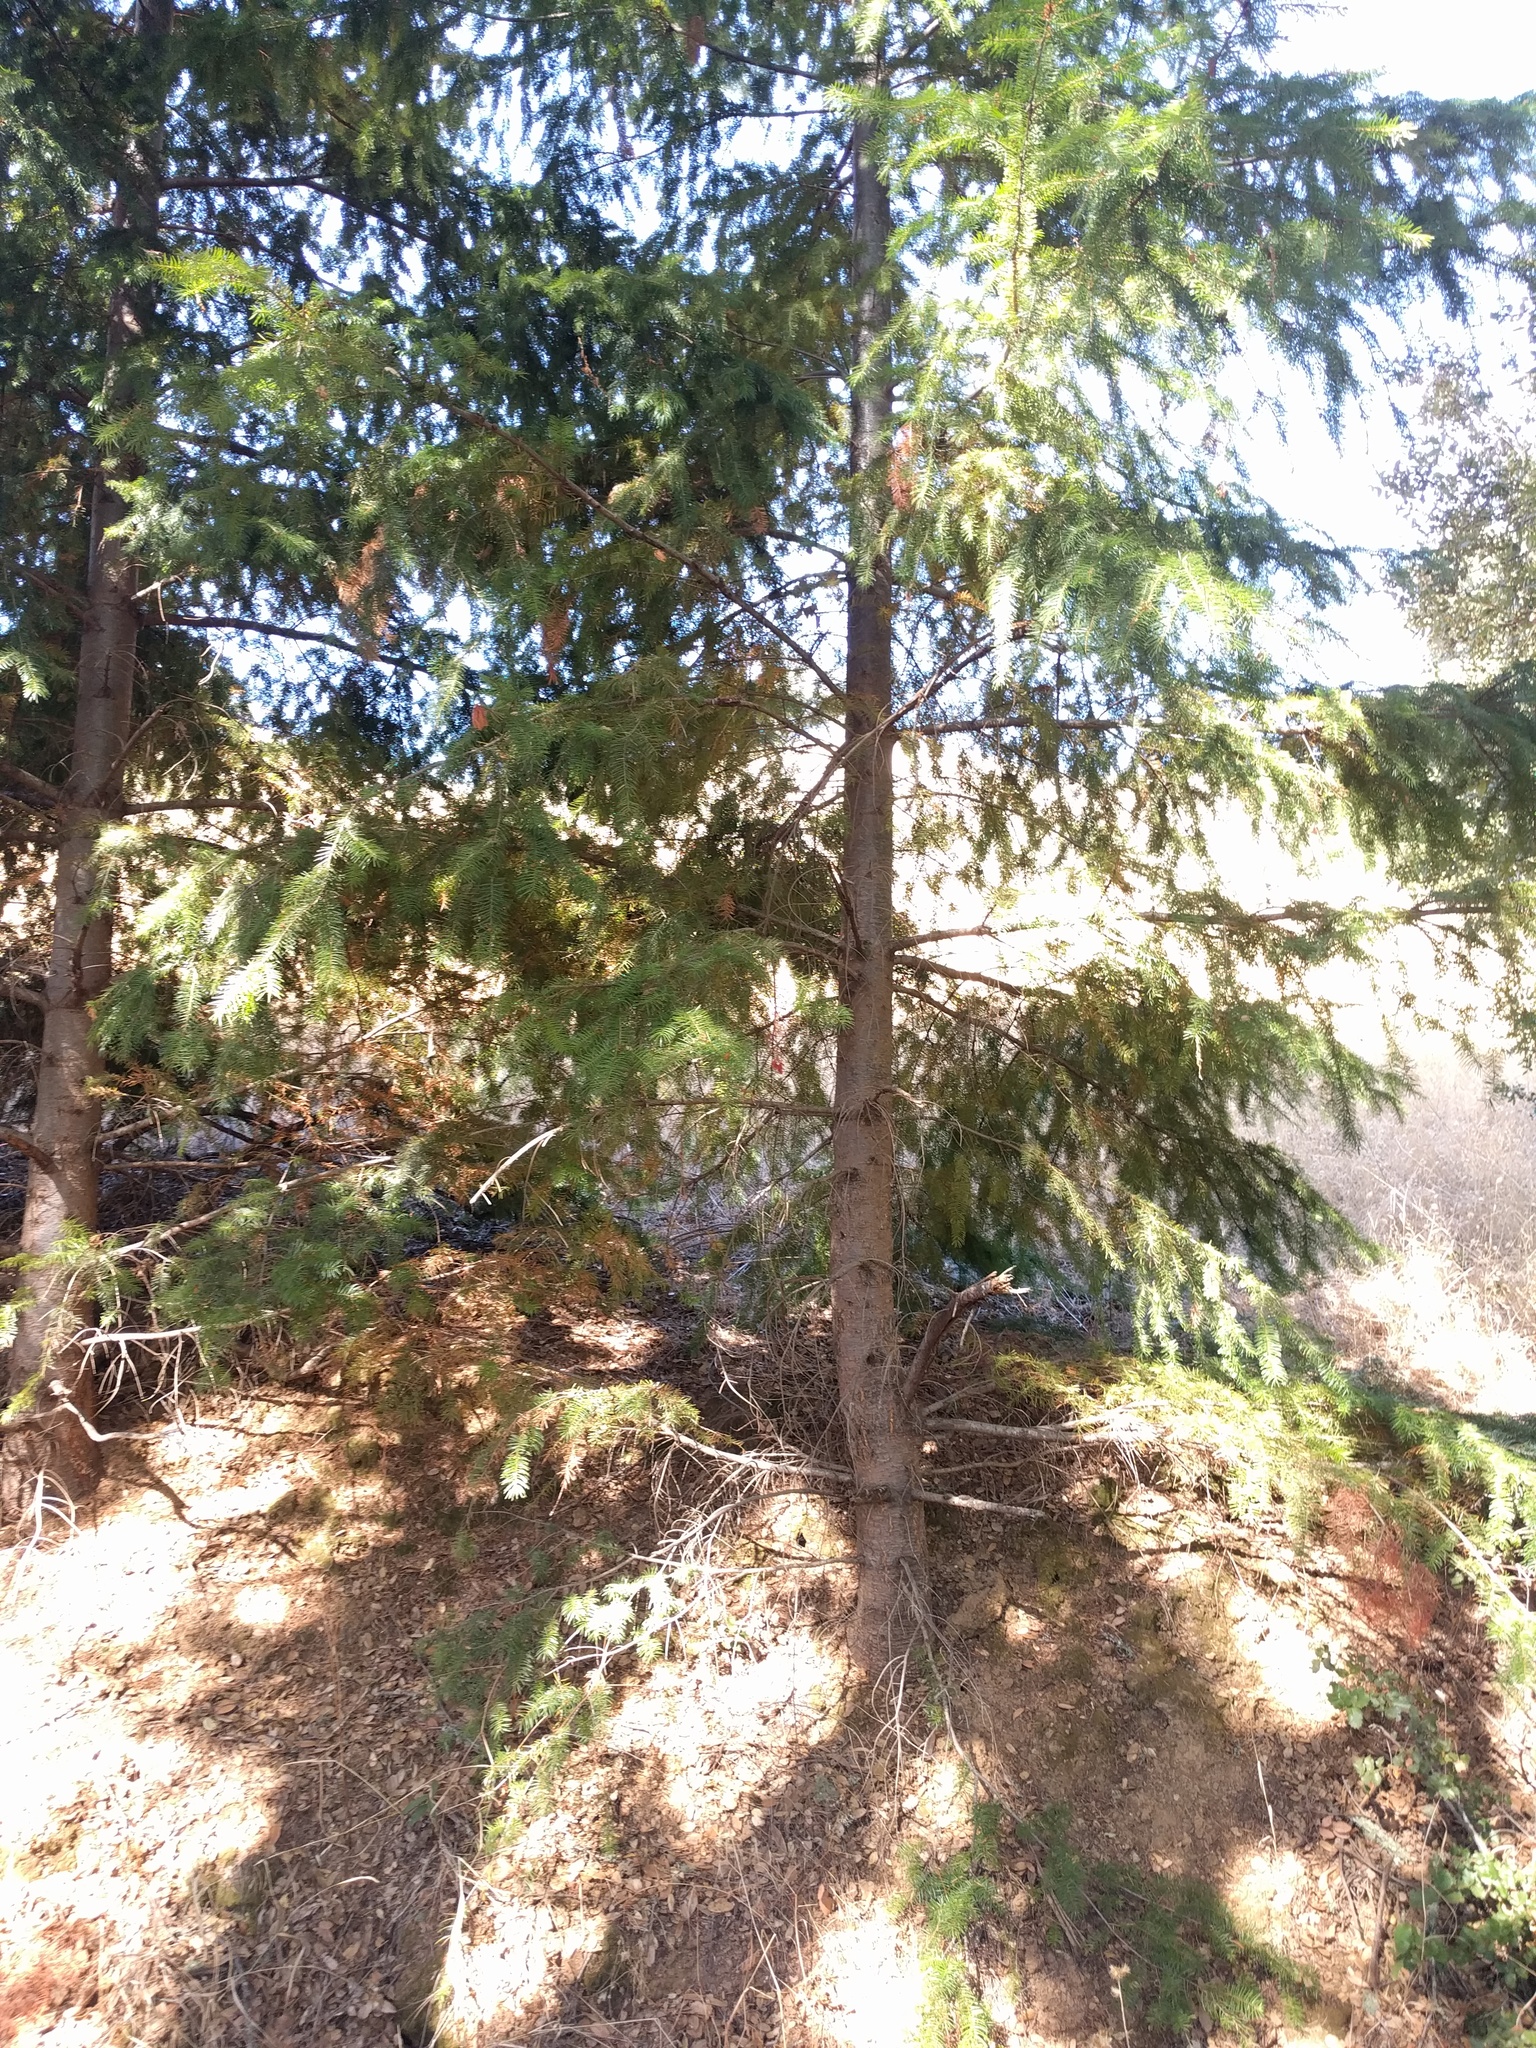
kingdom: Plantae
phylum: Tracheophyta
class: Pinopsida
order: Pinales
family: Pinaceae
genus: Pseudotsuga
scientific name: Pseudotsuga menziesii
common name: Douglas fir
